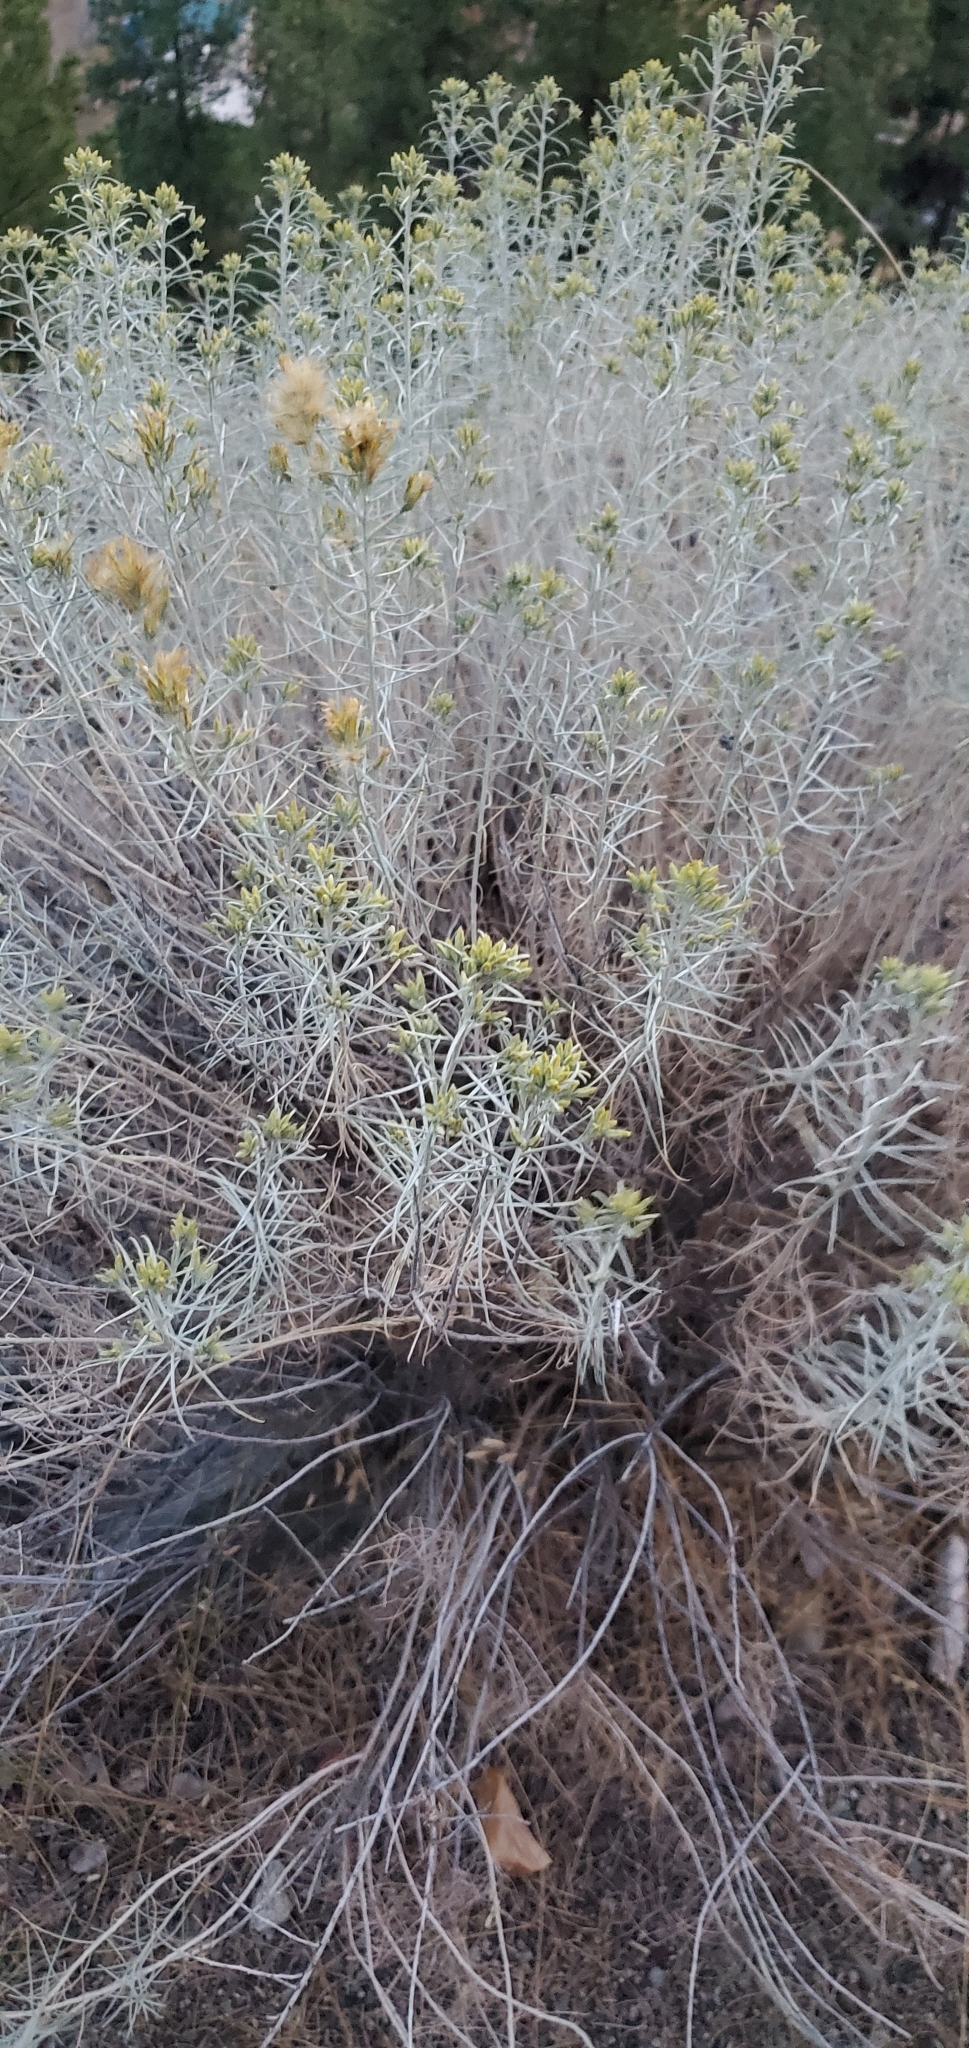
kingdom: Plantae
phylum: Tracheophyta
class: Magnoliopsida
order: Asterales
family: Asteraceae
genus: Ericameria
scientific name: Ericameria nauseosa
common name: Rubber rabbitbrush
